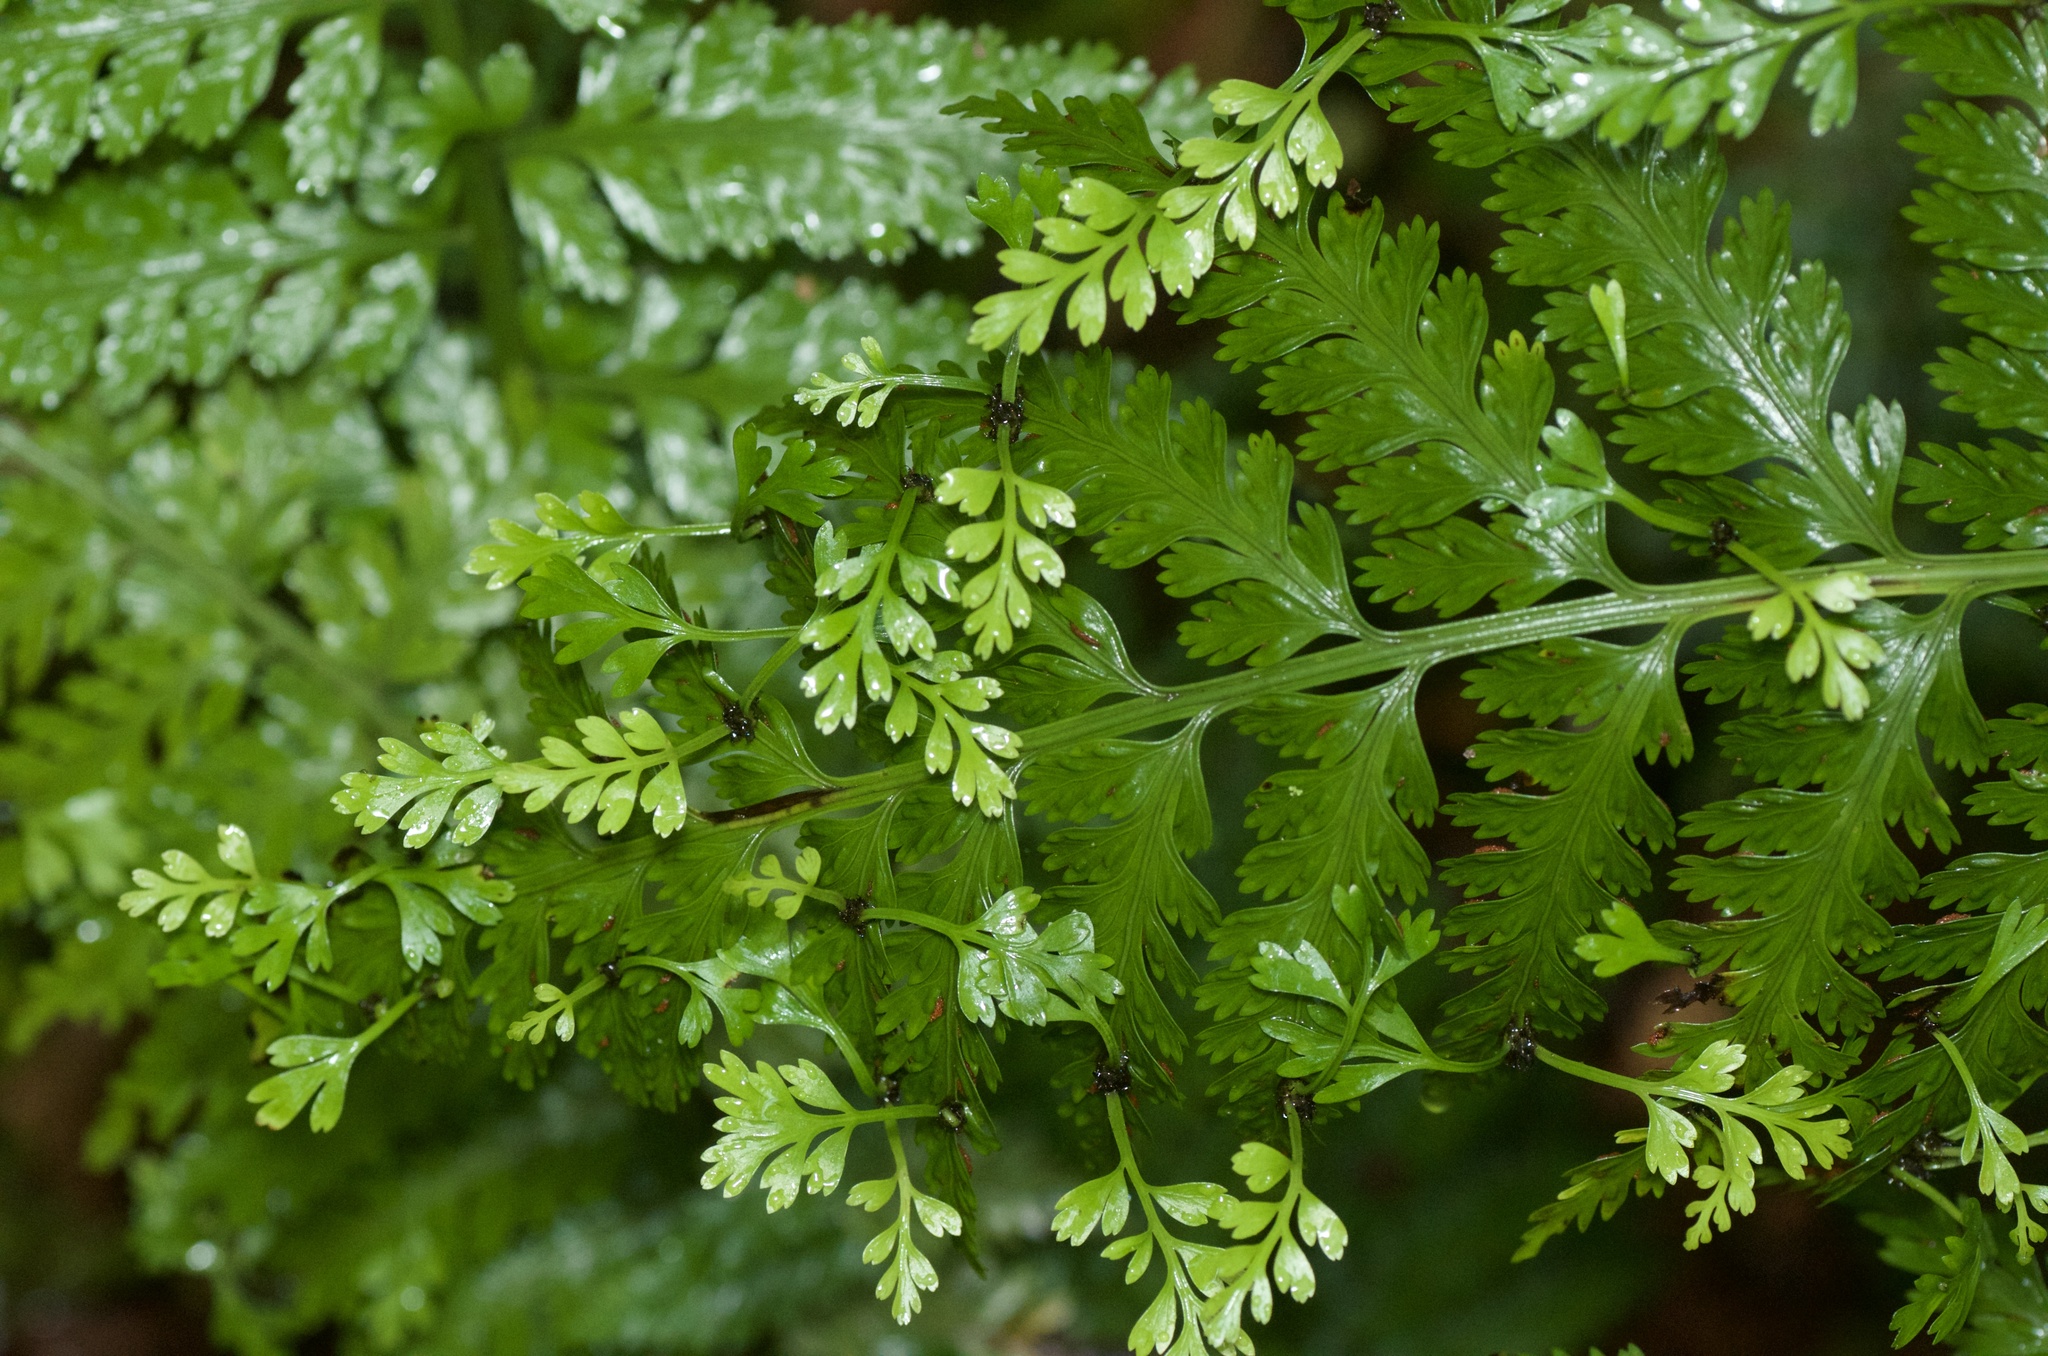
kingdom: Plantae
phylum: Tracheophyta
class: Polypodiopsida
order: Polypodiales
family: Aspleniaceae
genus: Asplenium
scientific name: Asplenium bulbiferum
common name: Mother fern
